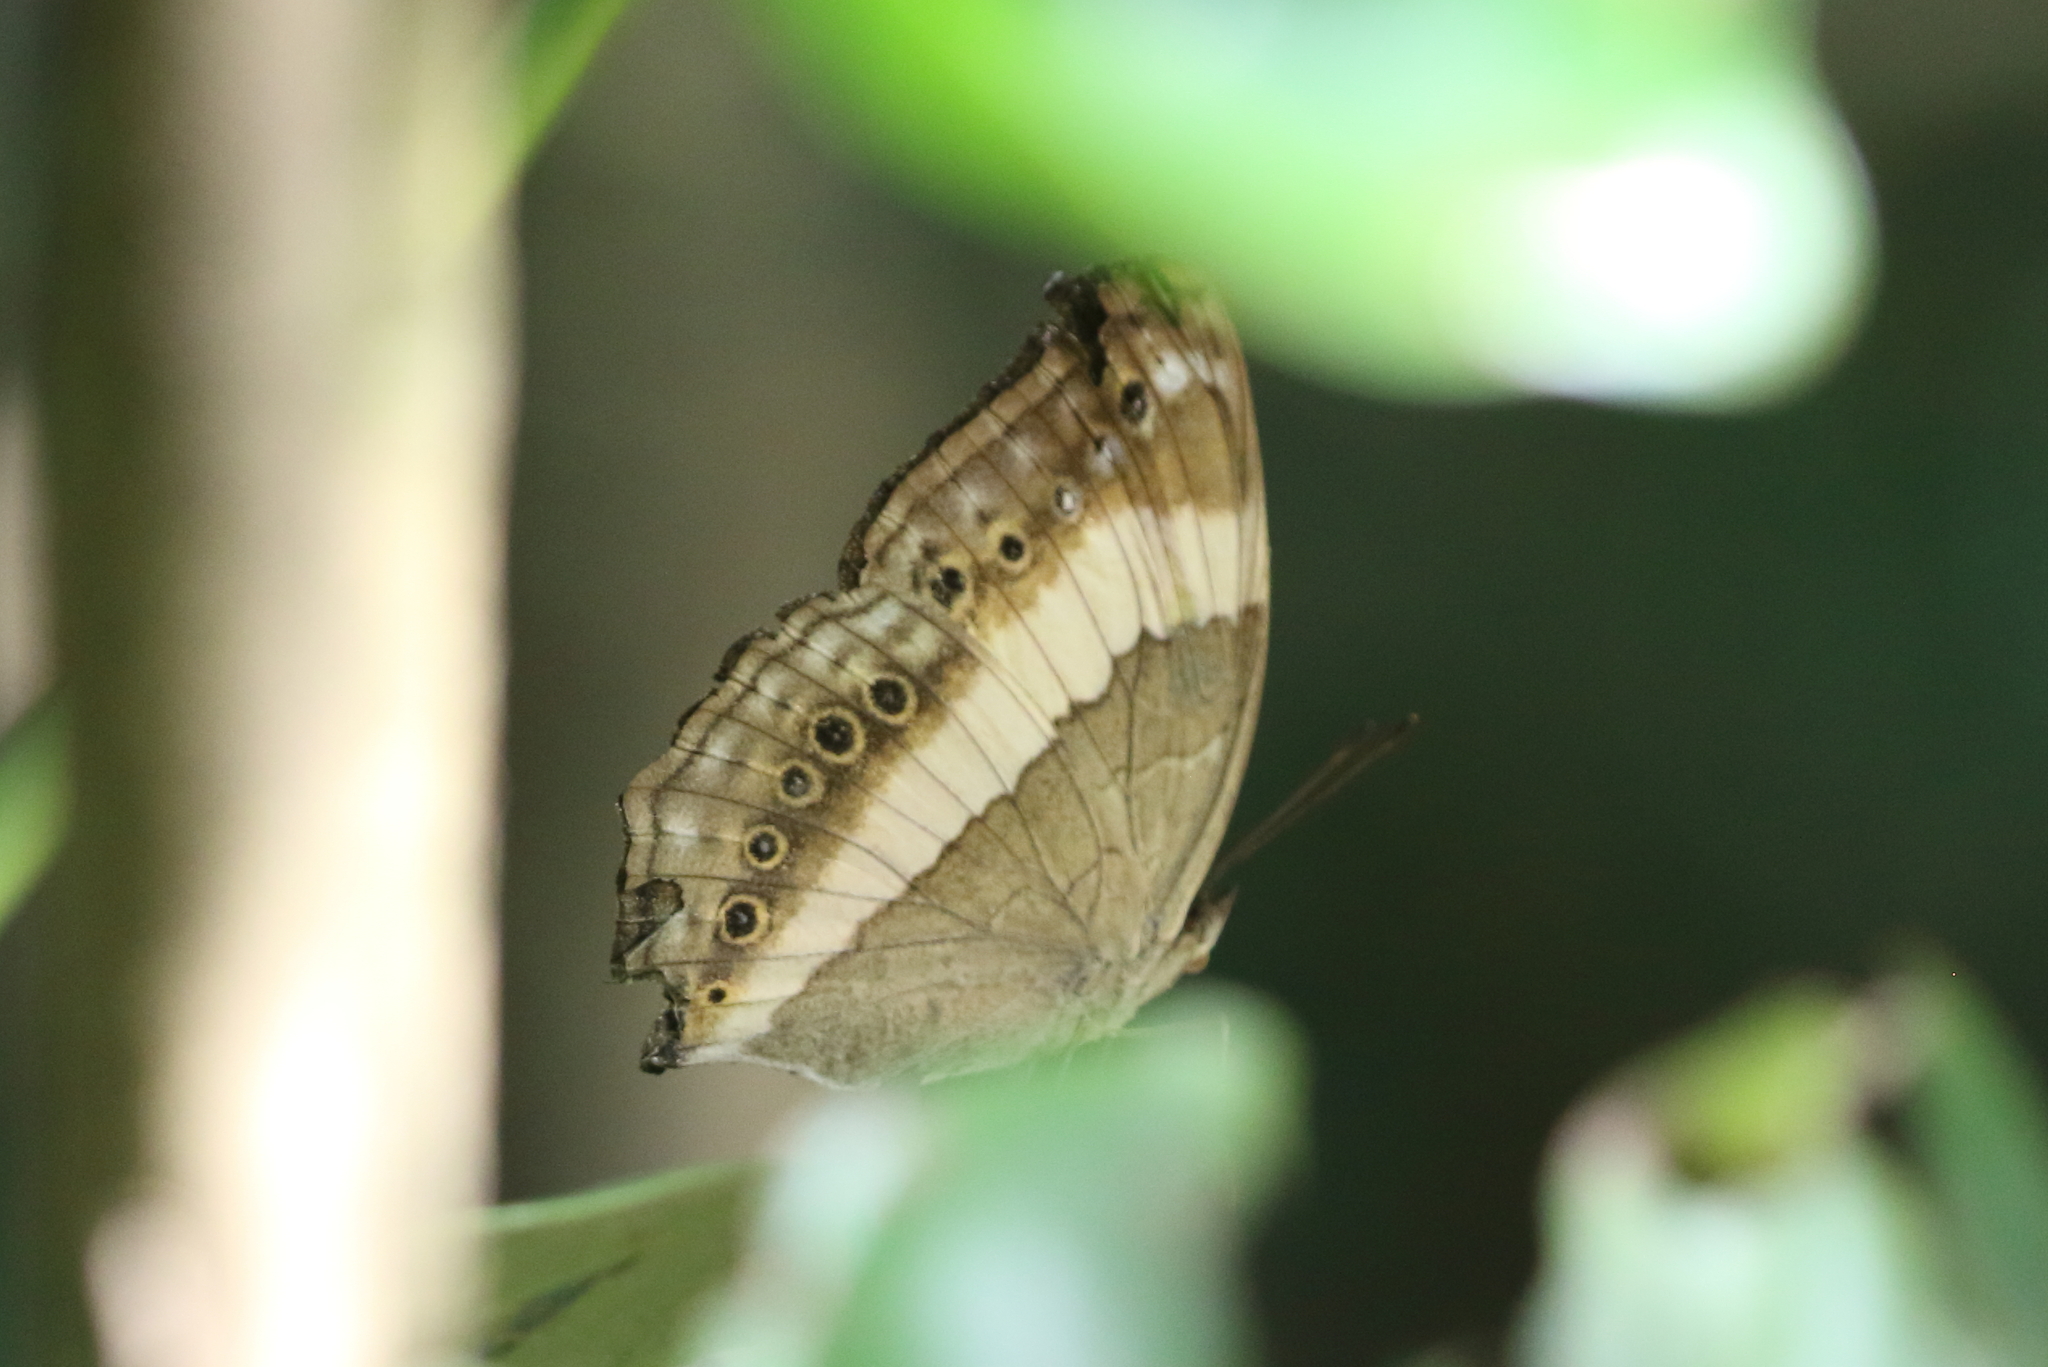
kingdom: Animalia
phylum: Arthropoda
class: Insecta
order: Lepidoptera
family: Nymphalidae
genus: Yoma
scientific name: Yoma algina
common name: New guinea lurcher
